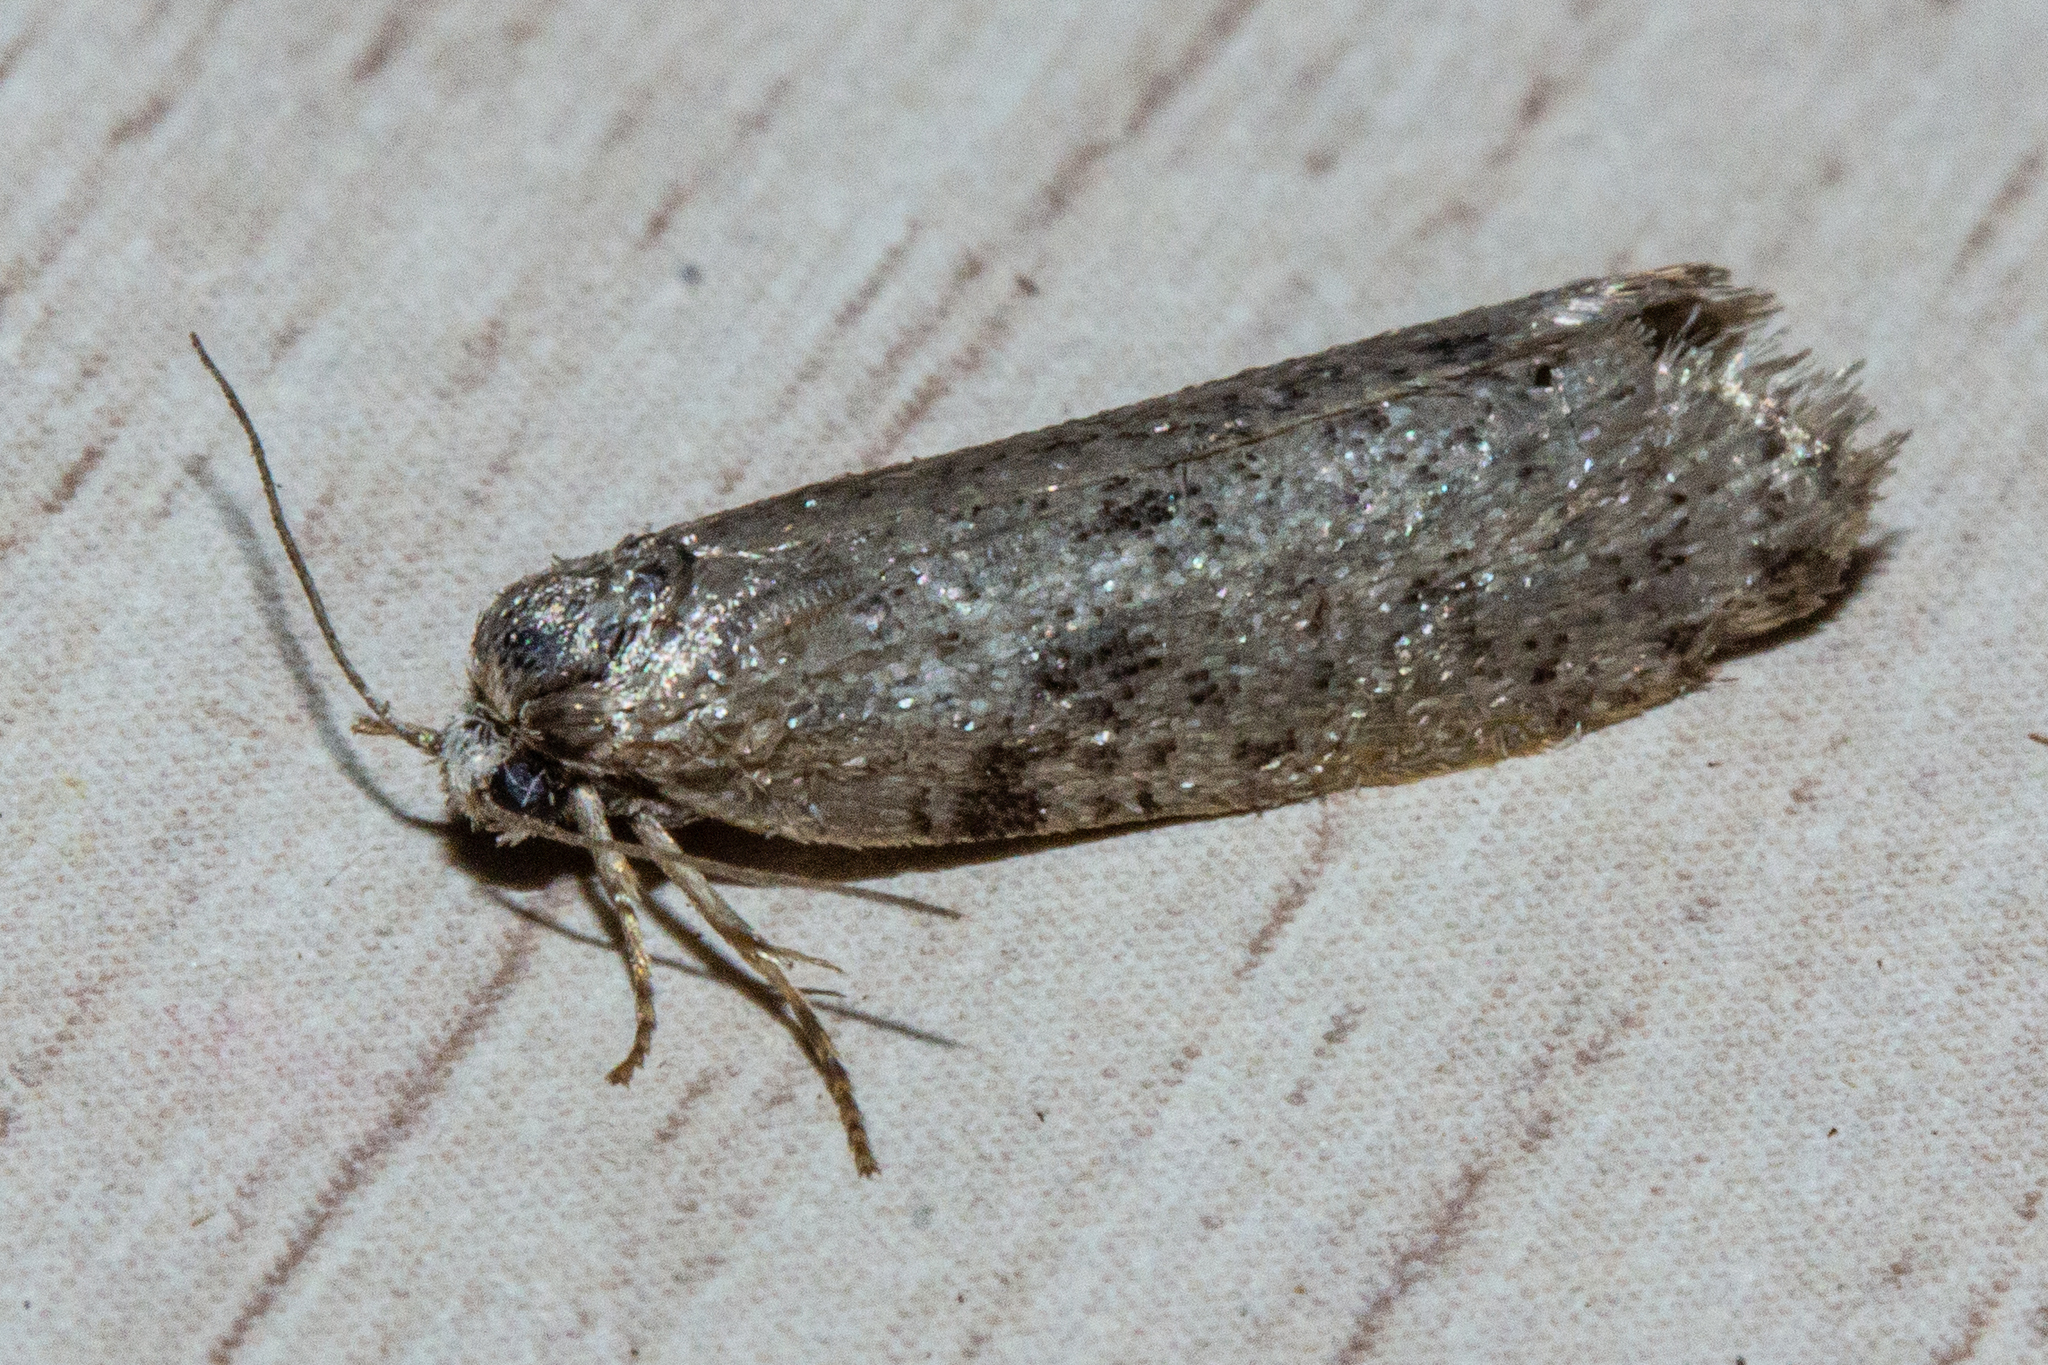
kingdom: Animalia
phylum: Arthropoda
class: Insecta
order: Lepidoptera
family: Psychidae
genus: Lepidoscia
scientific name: Lepidoscia protorna
